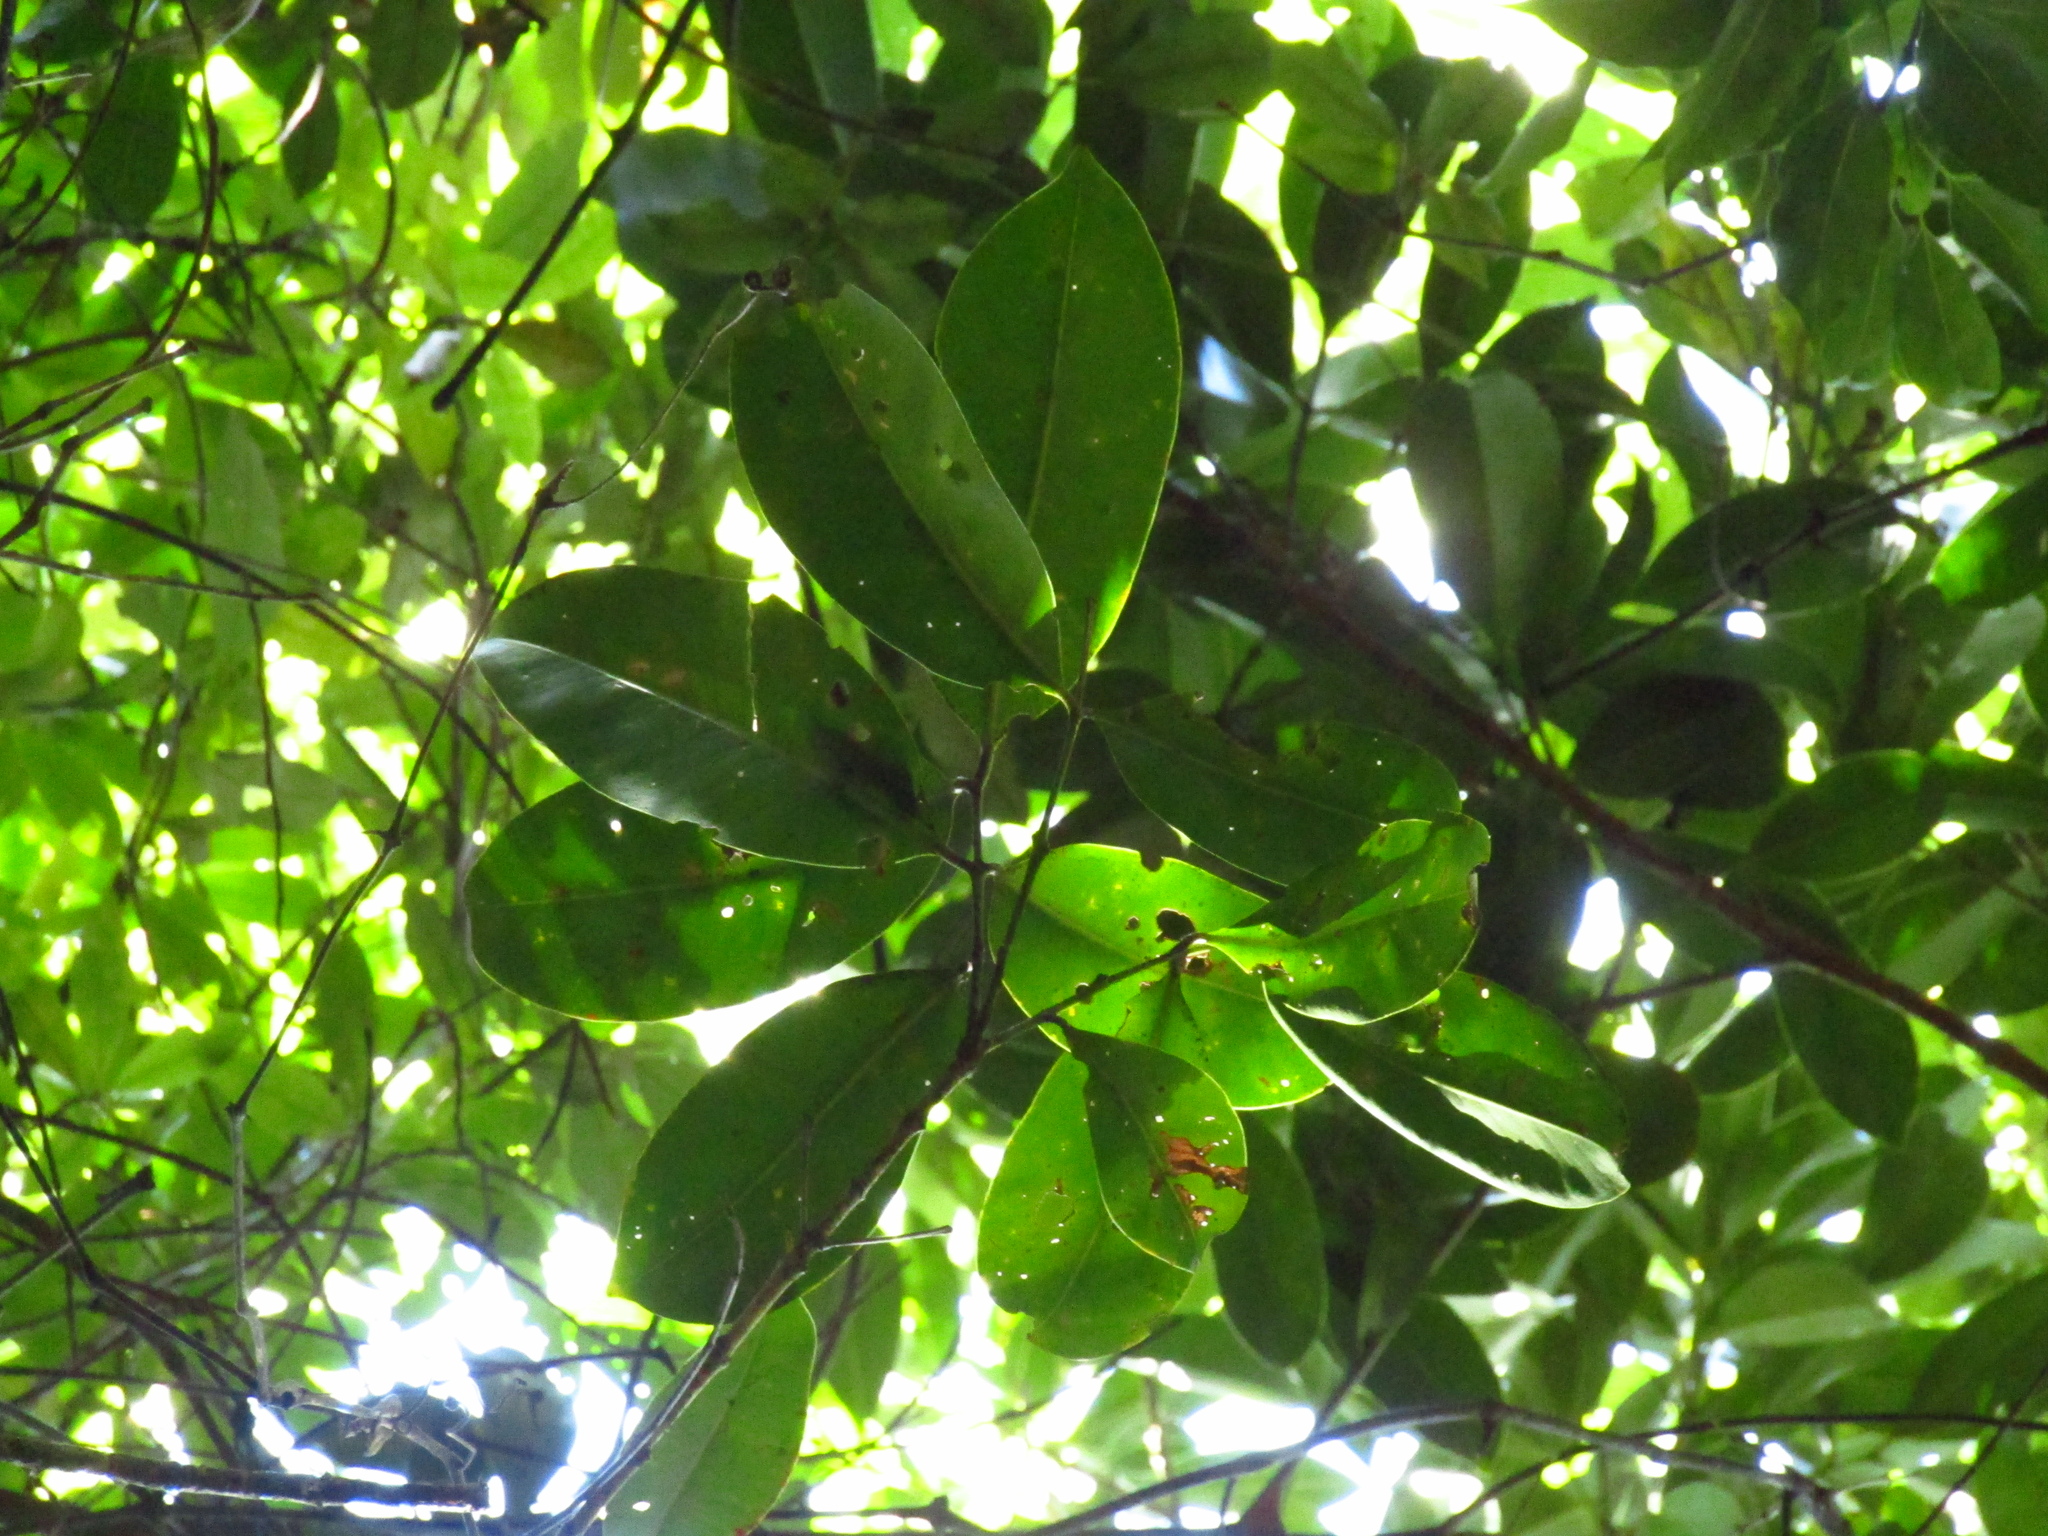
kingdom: Plantae
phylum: Tracheophyta
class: Magnoliopsida
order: Myrtales
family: Myrtaceae
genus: Syzygium
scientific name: Syzygium moorei
